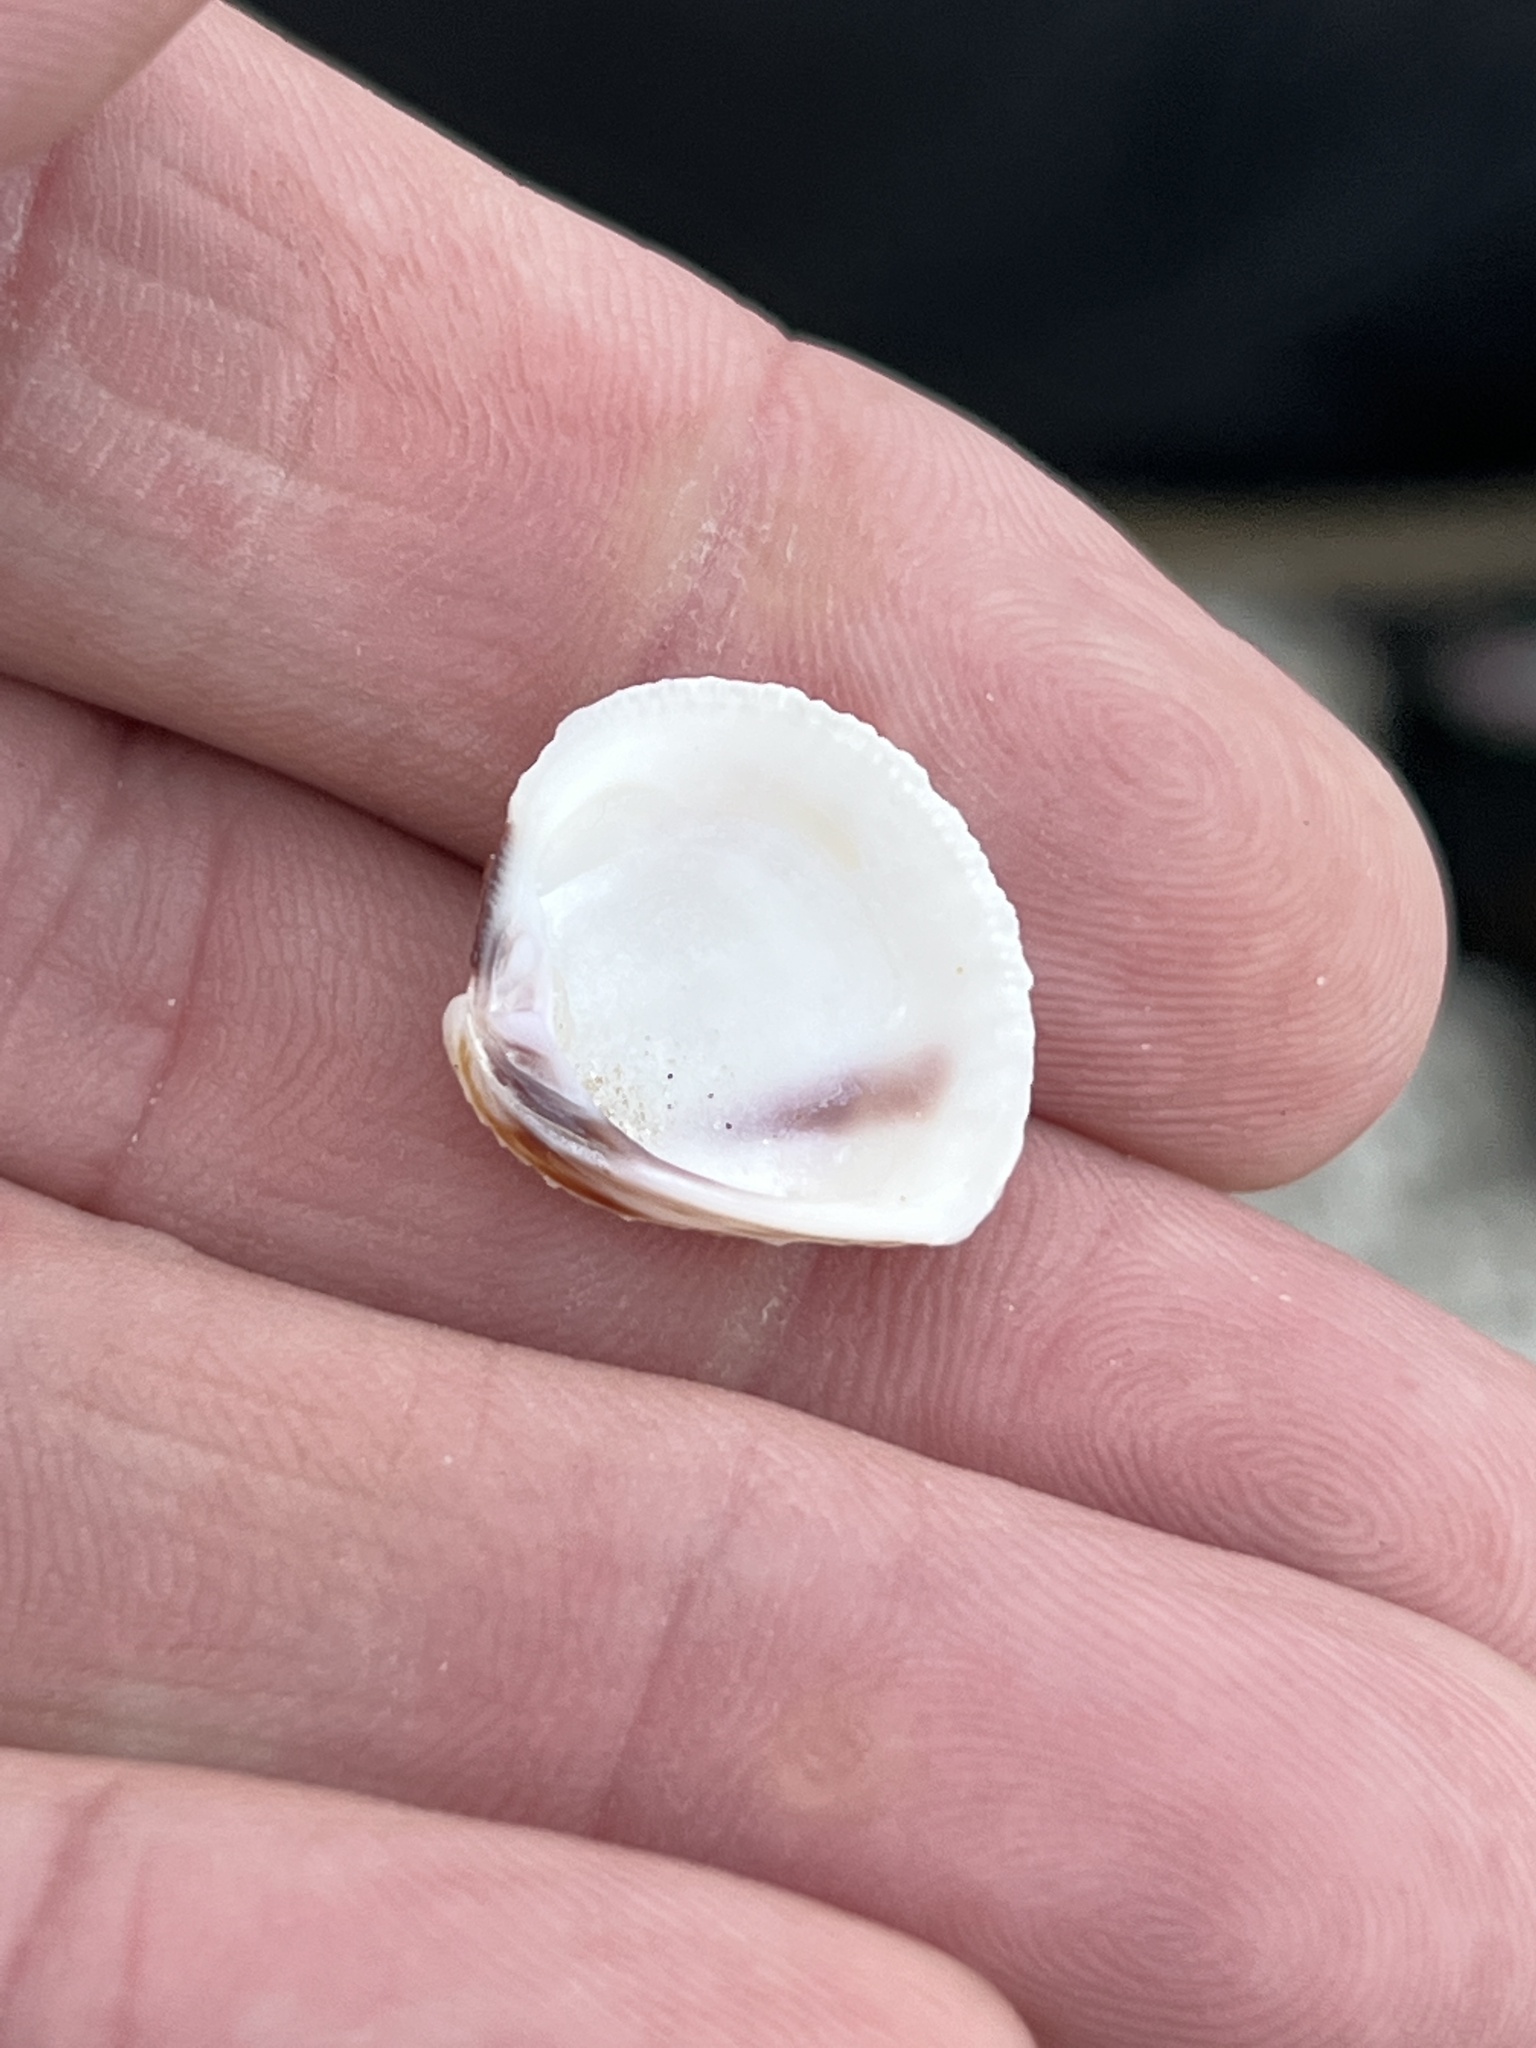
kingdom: Animalia
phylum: Mollusca
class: Bivalvia
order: Venerida
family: Veneridae
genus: Chione
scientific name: Chione elevata
